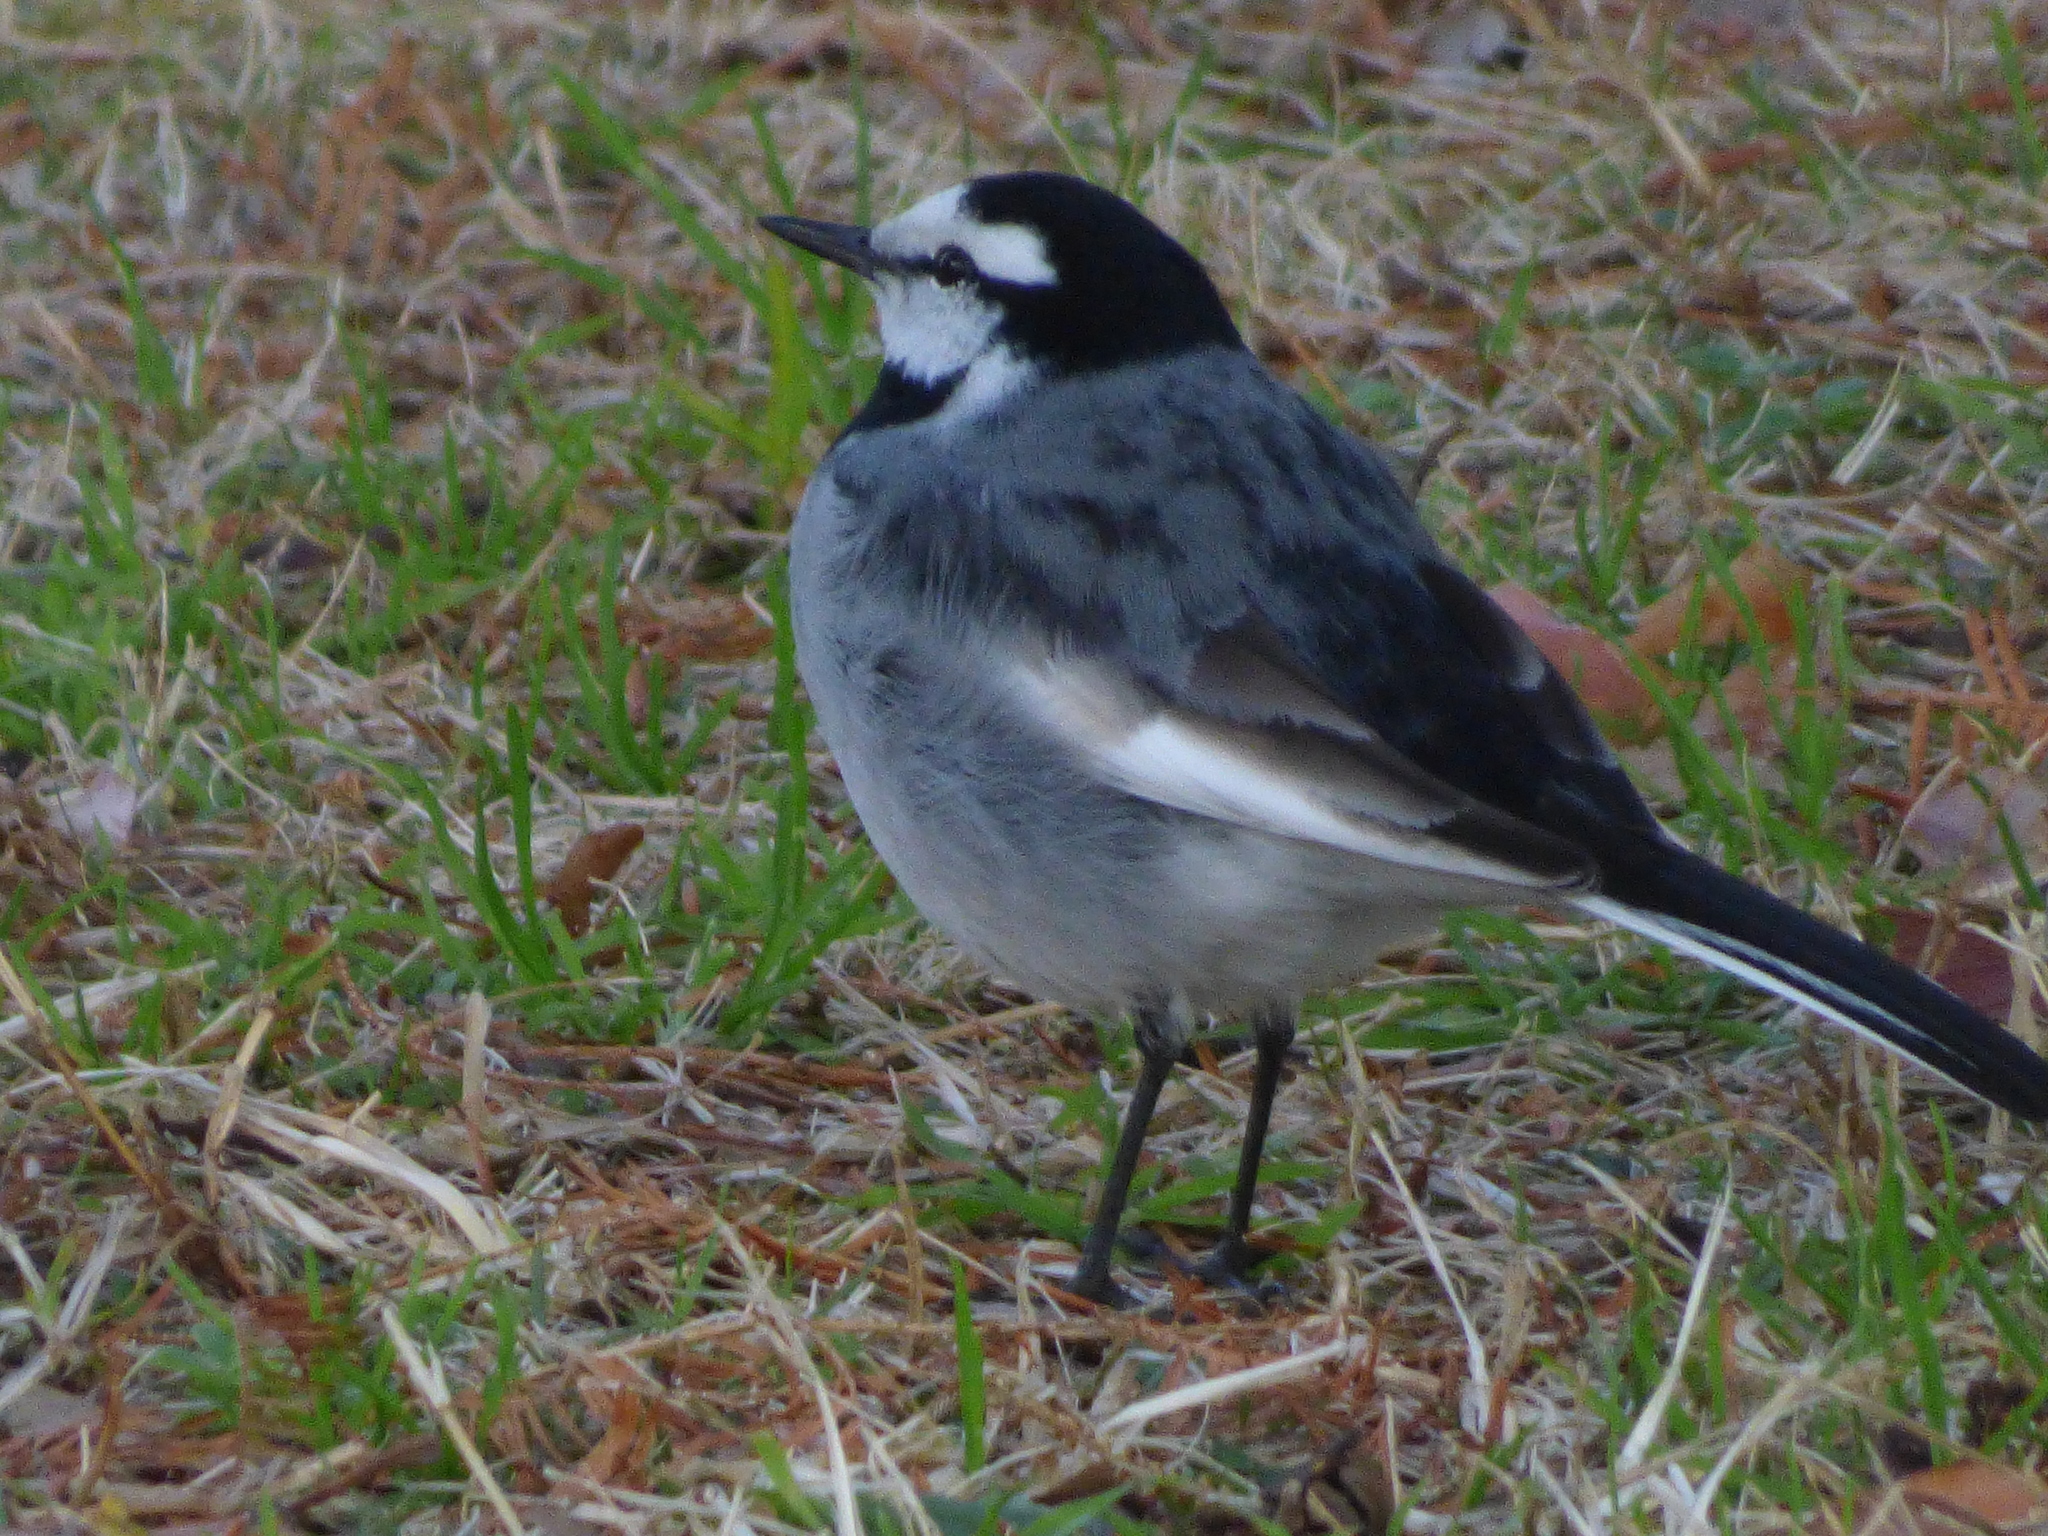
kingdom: Animalia
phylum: Chordata
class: Aves
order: Passeriformes
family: Motacillidae
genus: Motacilla
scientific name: Motacilla alba
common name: White wagtail
